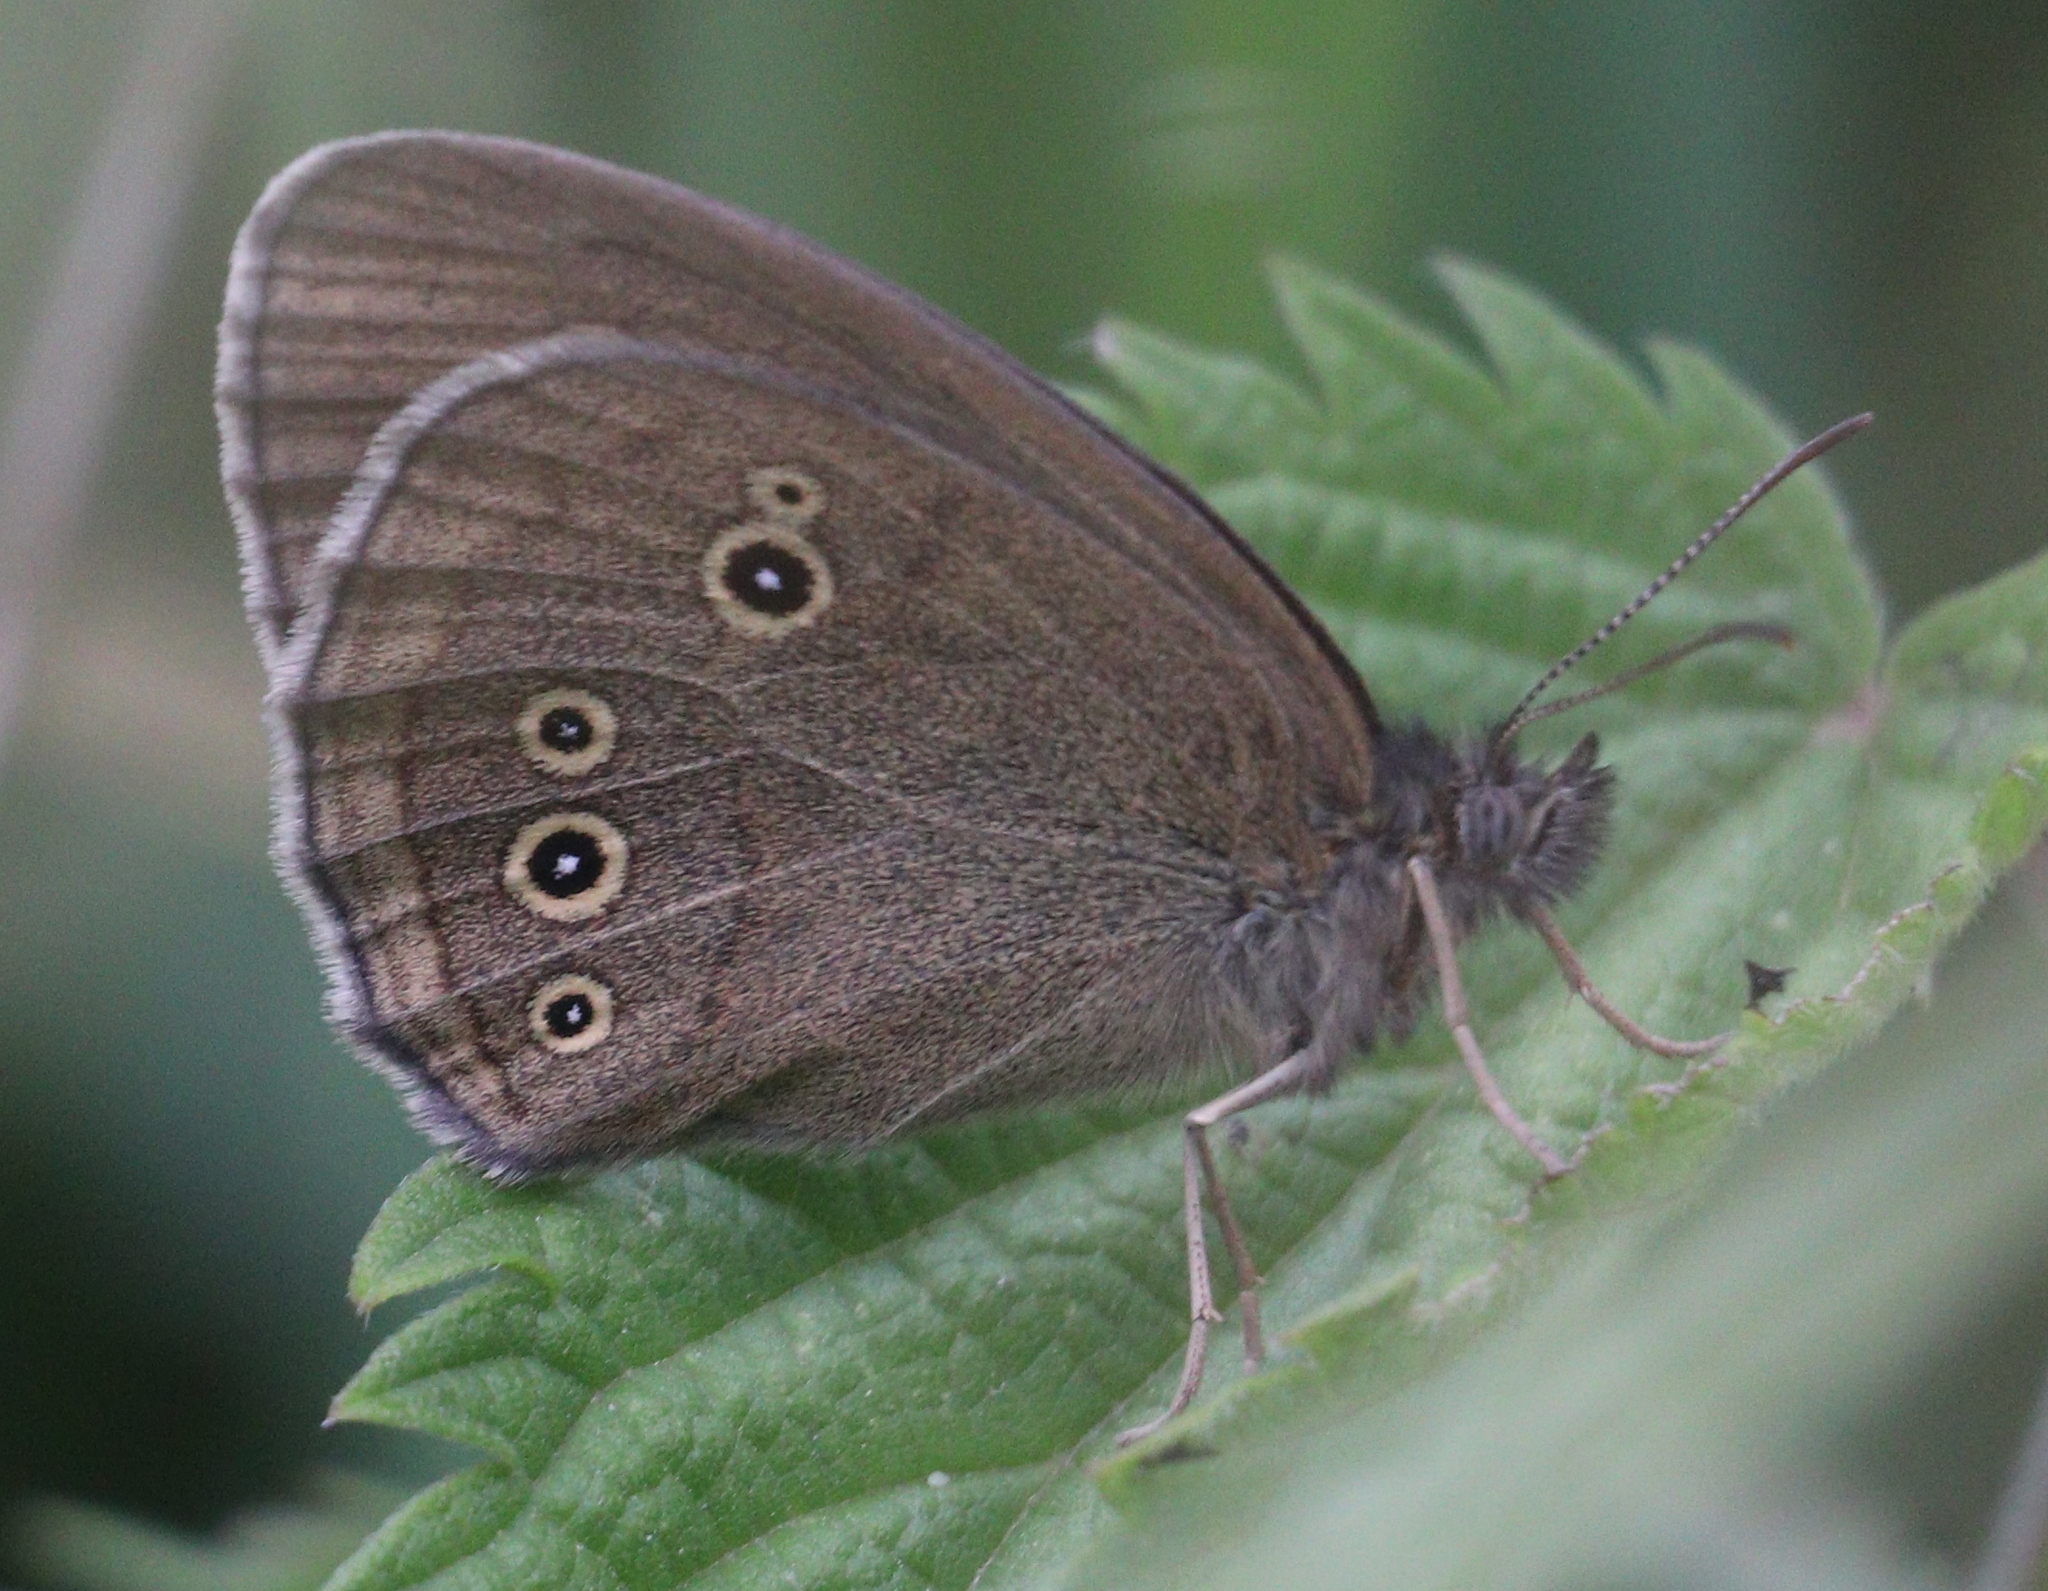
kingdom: Animalia
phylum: Arthropoda
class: Insecta
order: Lepidoptera
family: Nymphalidae
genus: Aphantopus
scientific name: Aphantopus hyperantus
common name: Ringlet
